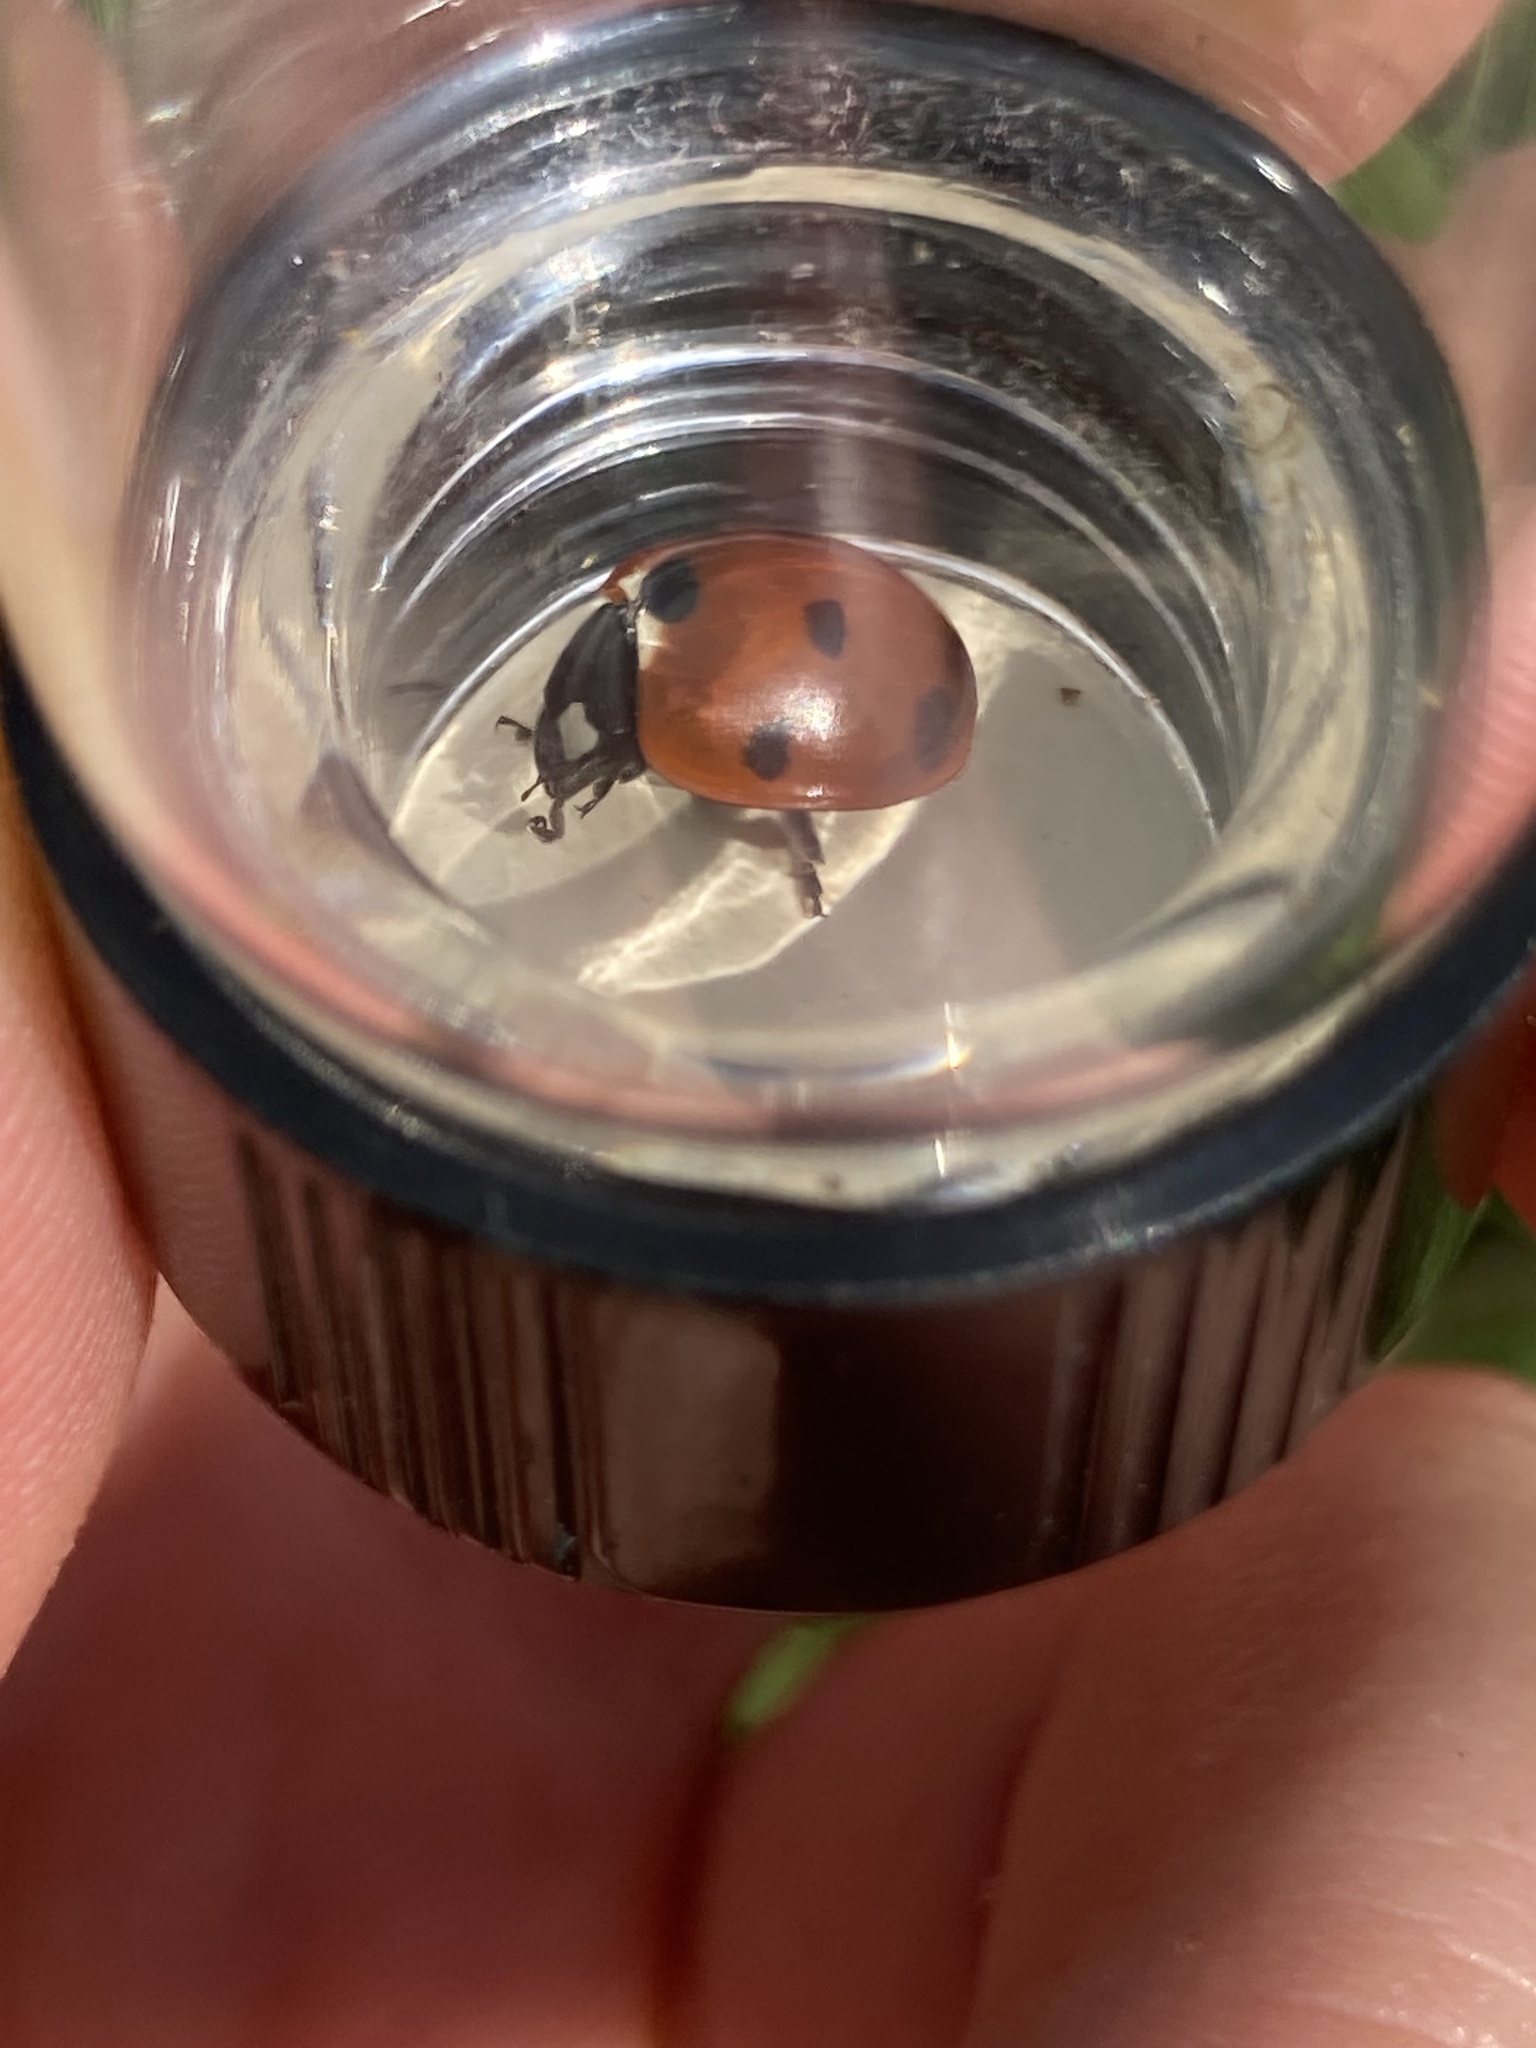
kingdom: Animalia
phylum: Arthropoda
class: Insecta
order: Coleoptera
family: Coccinellidae
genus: Coccinella
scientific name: Coccinella septempunctata
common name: Sevenspotted lady beetle
